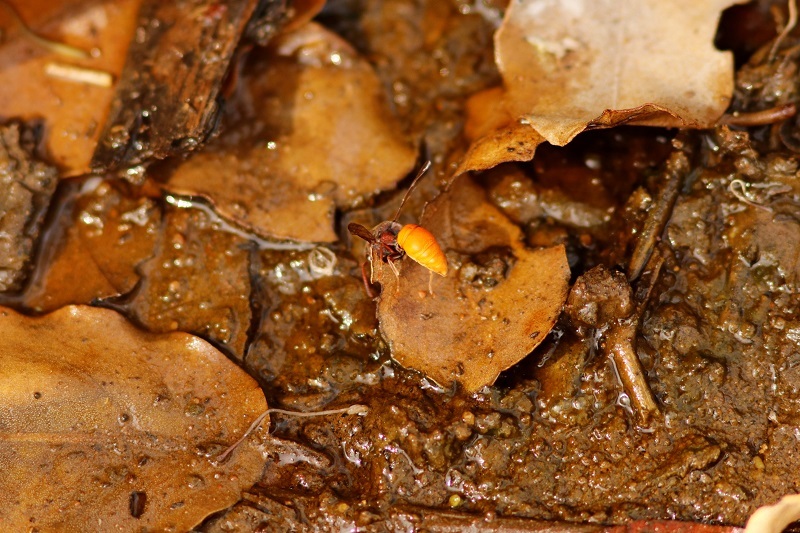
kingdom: Animalia
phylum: Arthropoda
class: Insecta
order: Hymenoptera
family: Eumenidae
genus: Tricarinodynerus
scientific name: Tricarinodynerus guerinii
